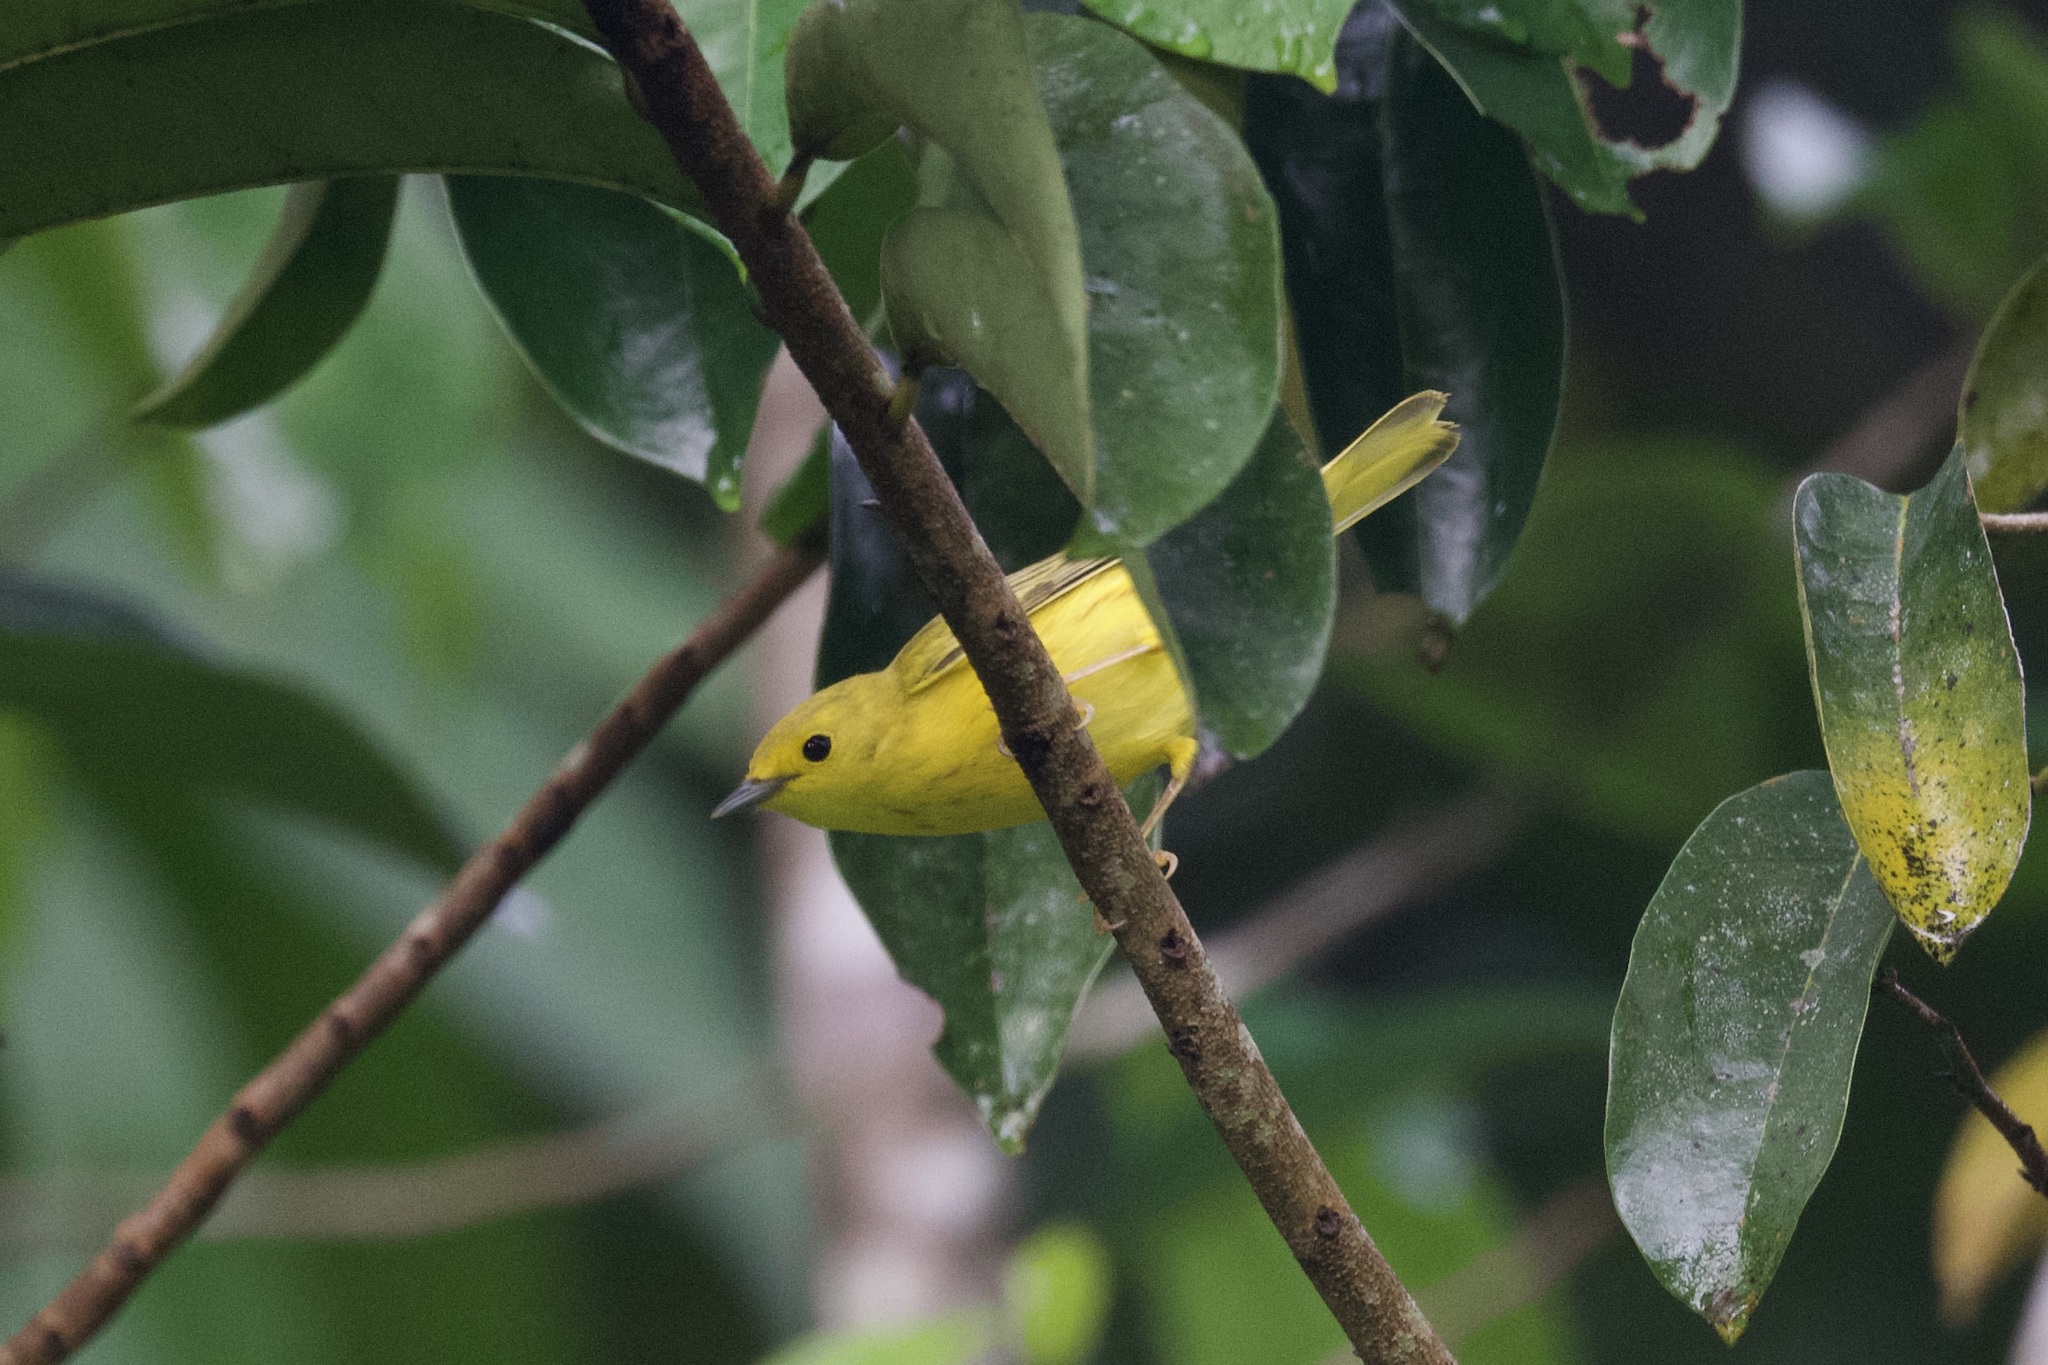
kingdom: Animalia
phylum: Chordata
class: Aves
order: Passeriformes
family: Parulidae
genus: Setophaga
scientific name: Setophaga petechia
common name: Yellow warbler
